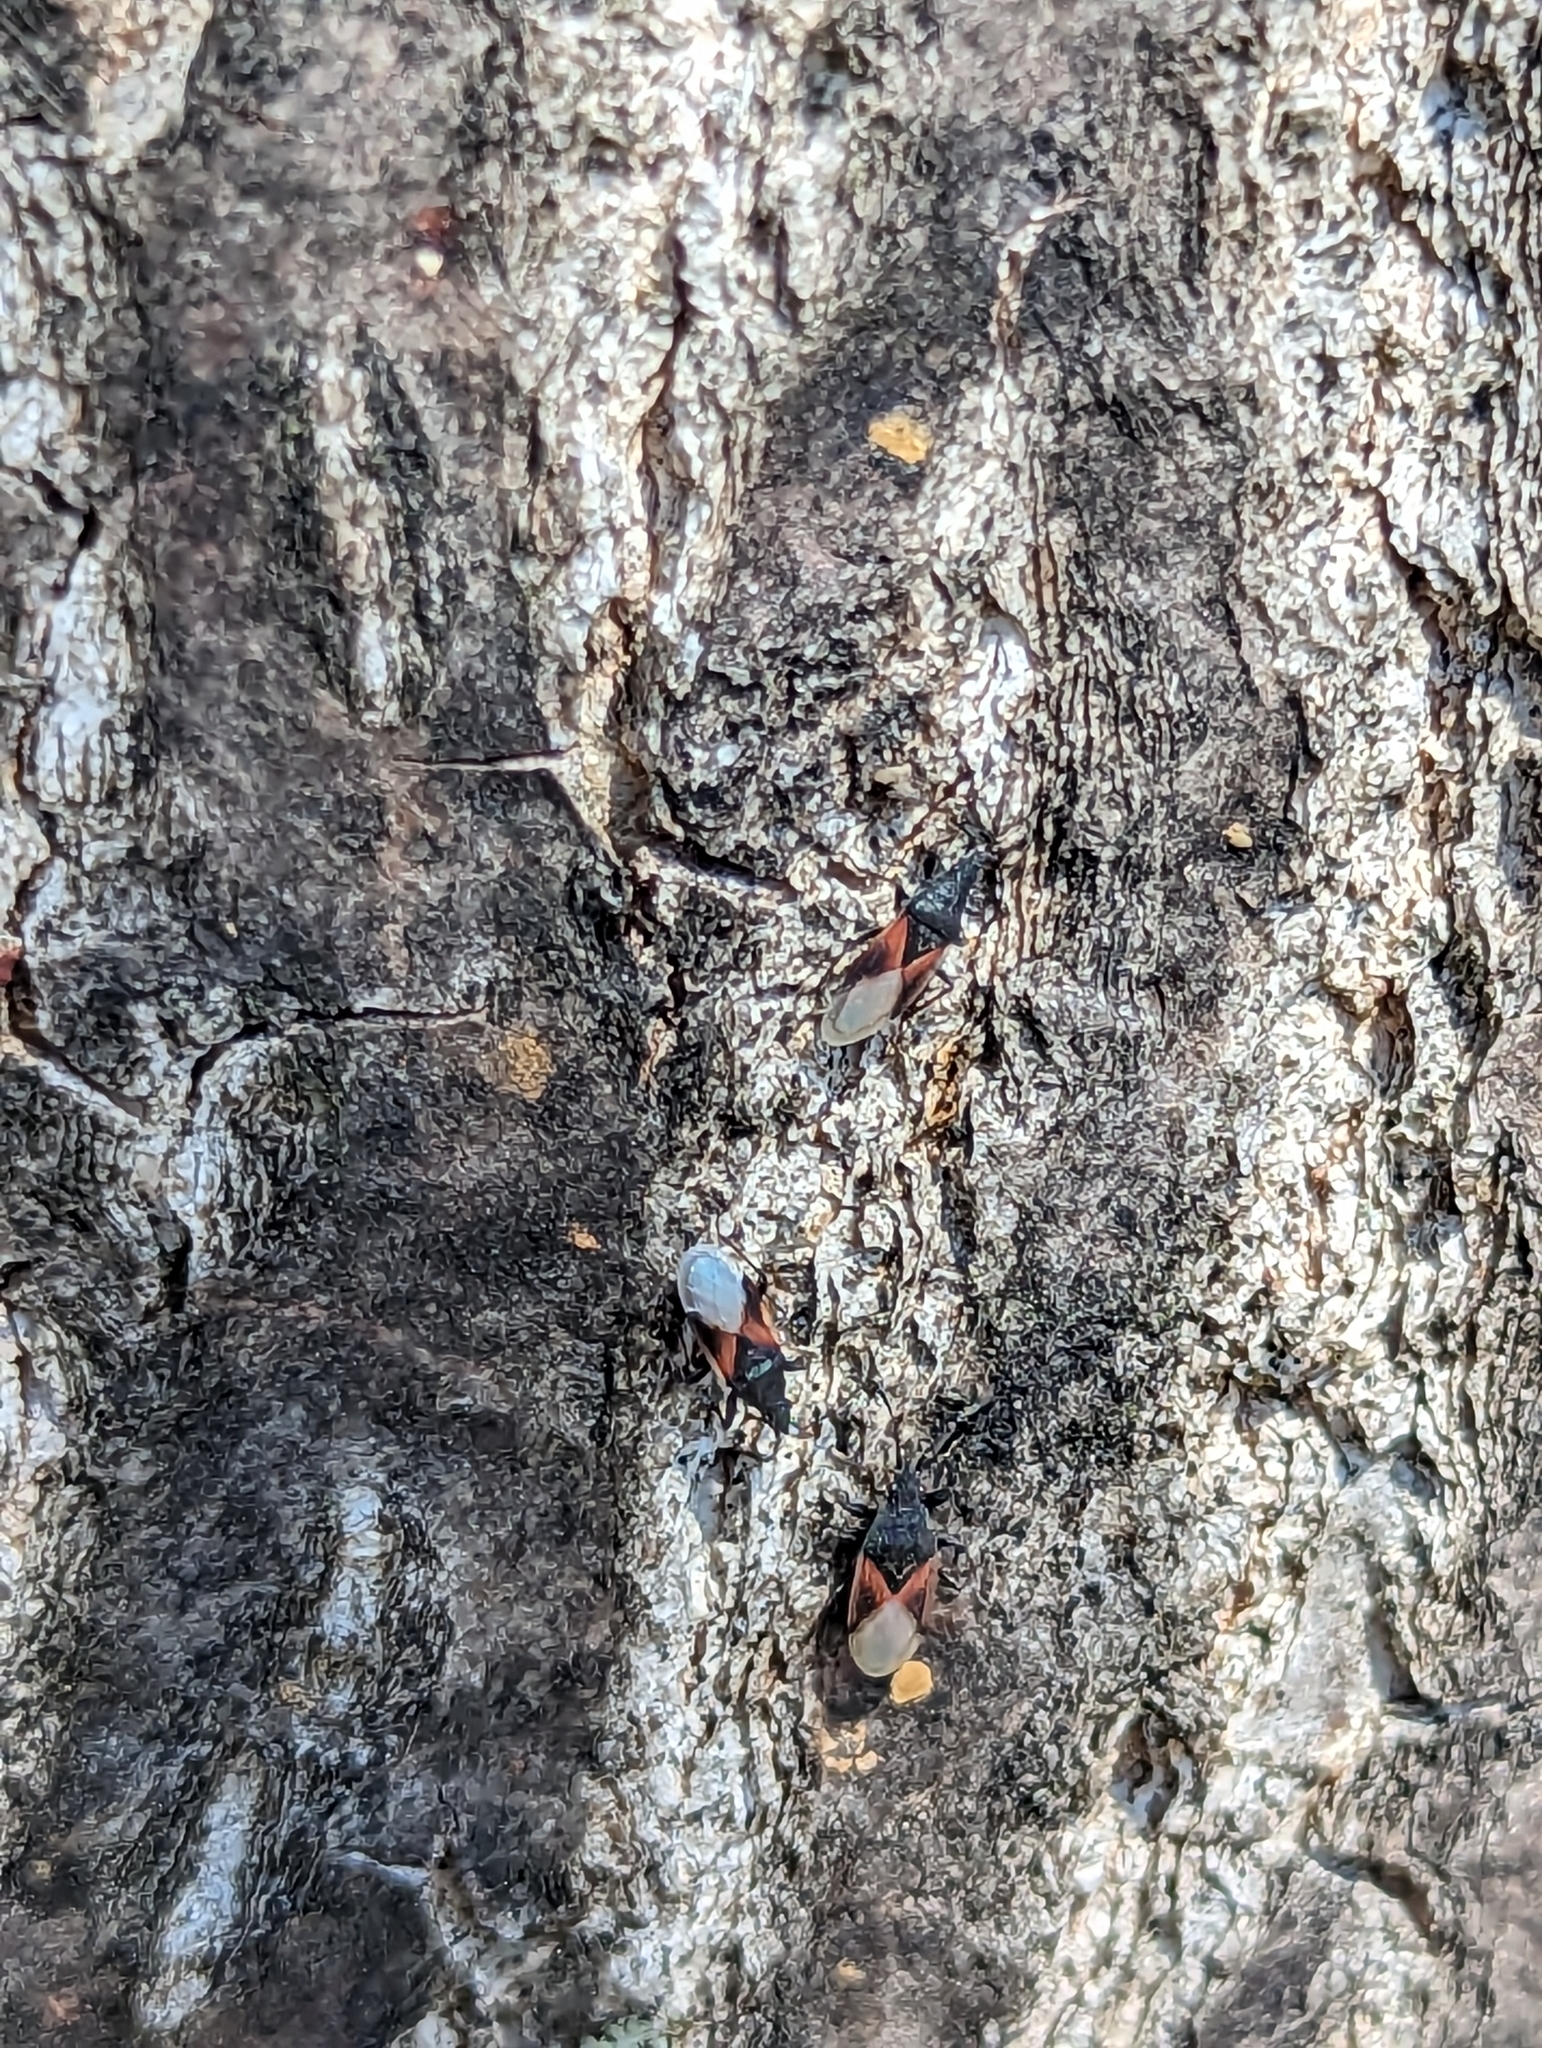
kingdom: Animalia
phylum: Arthropoda
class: Insecta
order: Hemiptera
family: Oxycarenidae
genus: Oxycarenus
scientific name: Oxycarenus lavaterae
